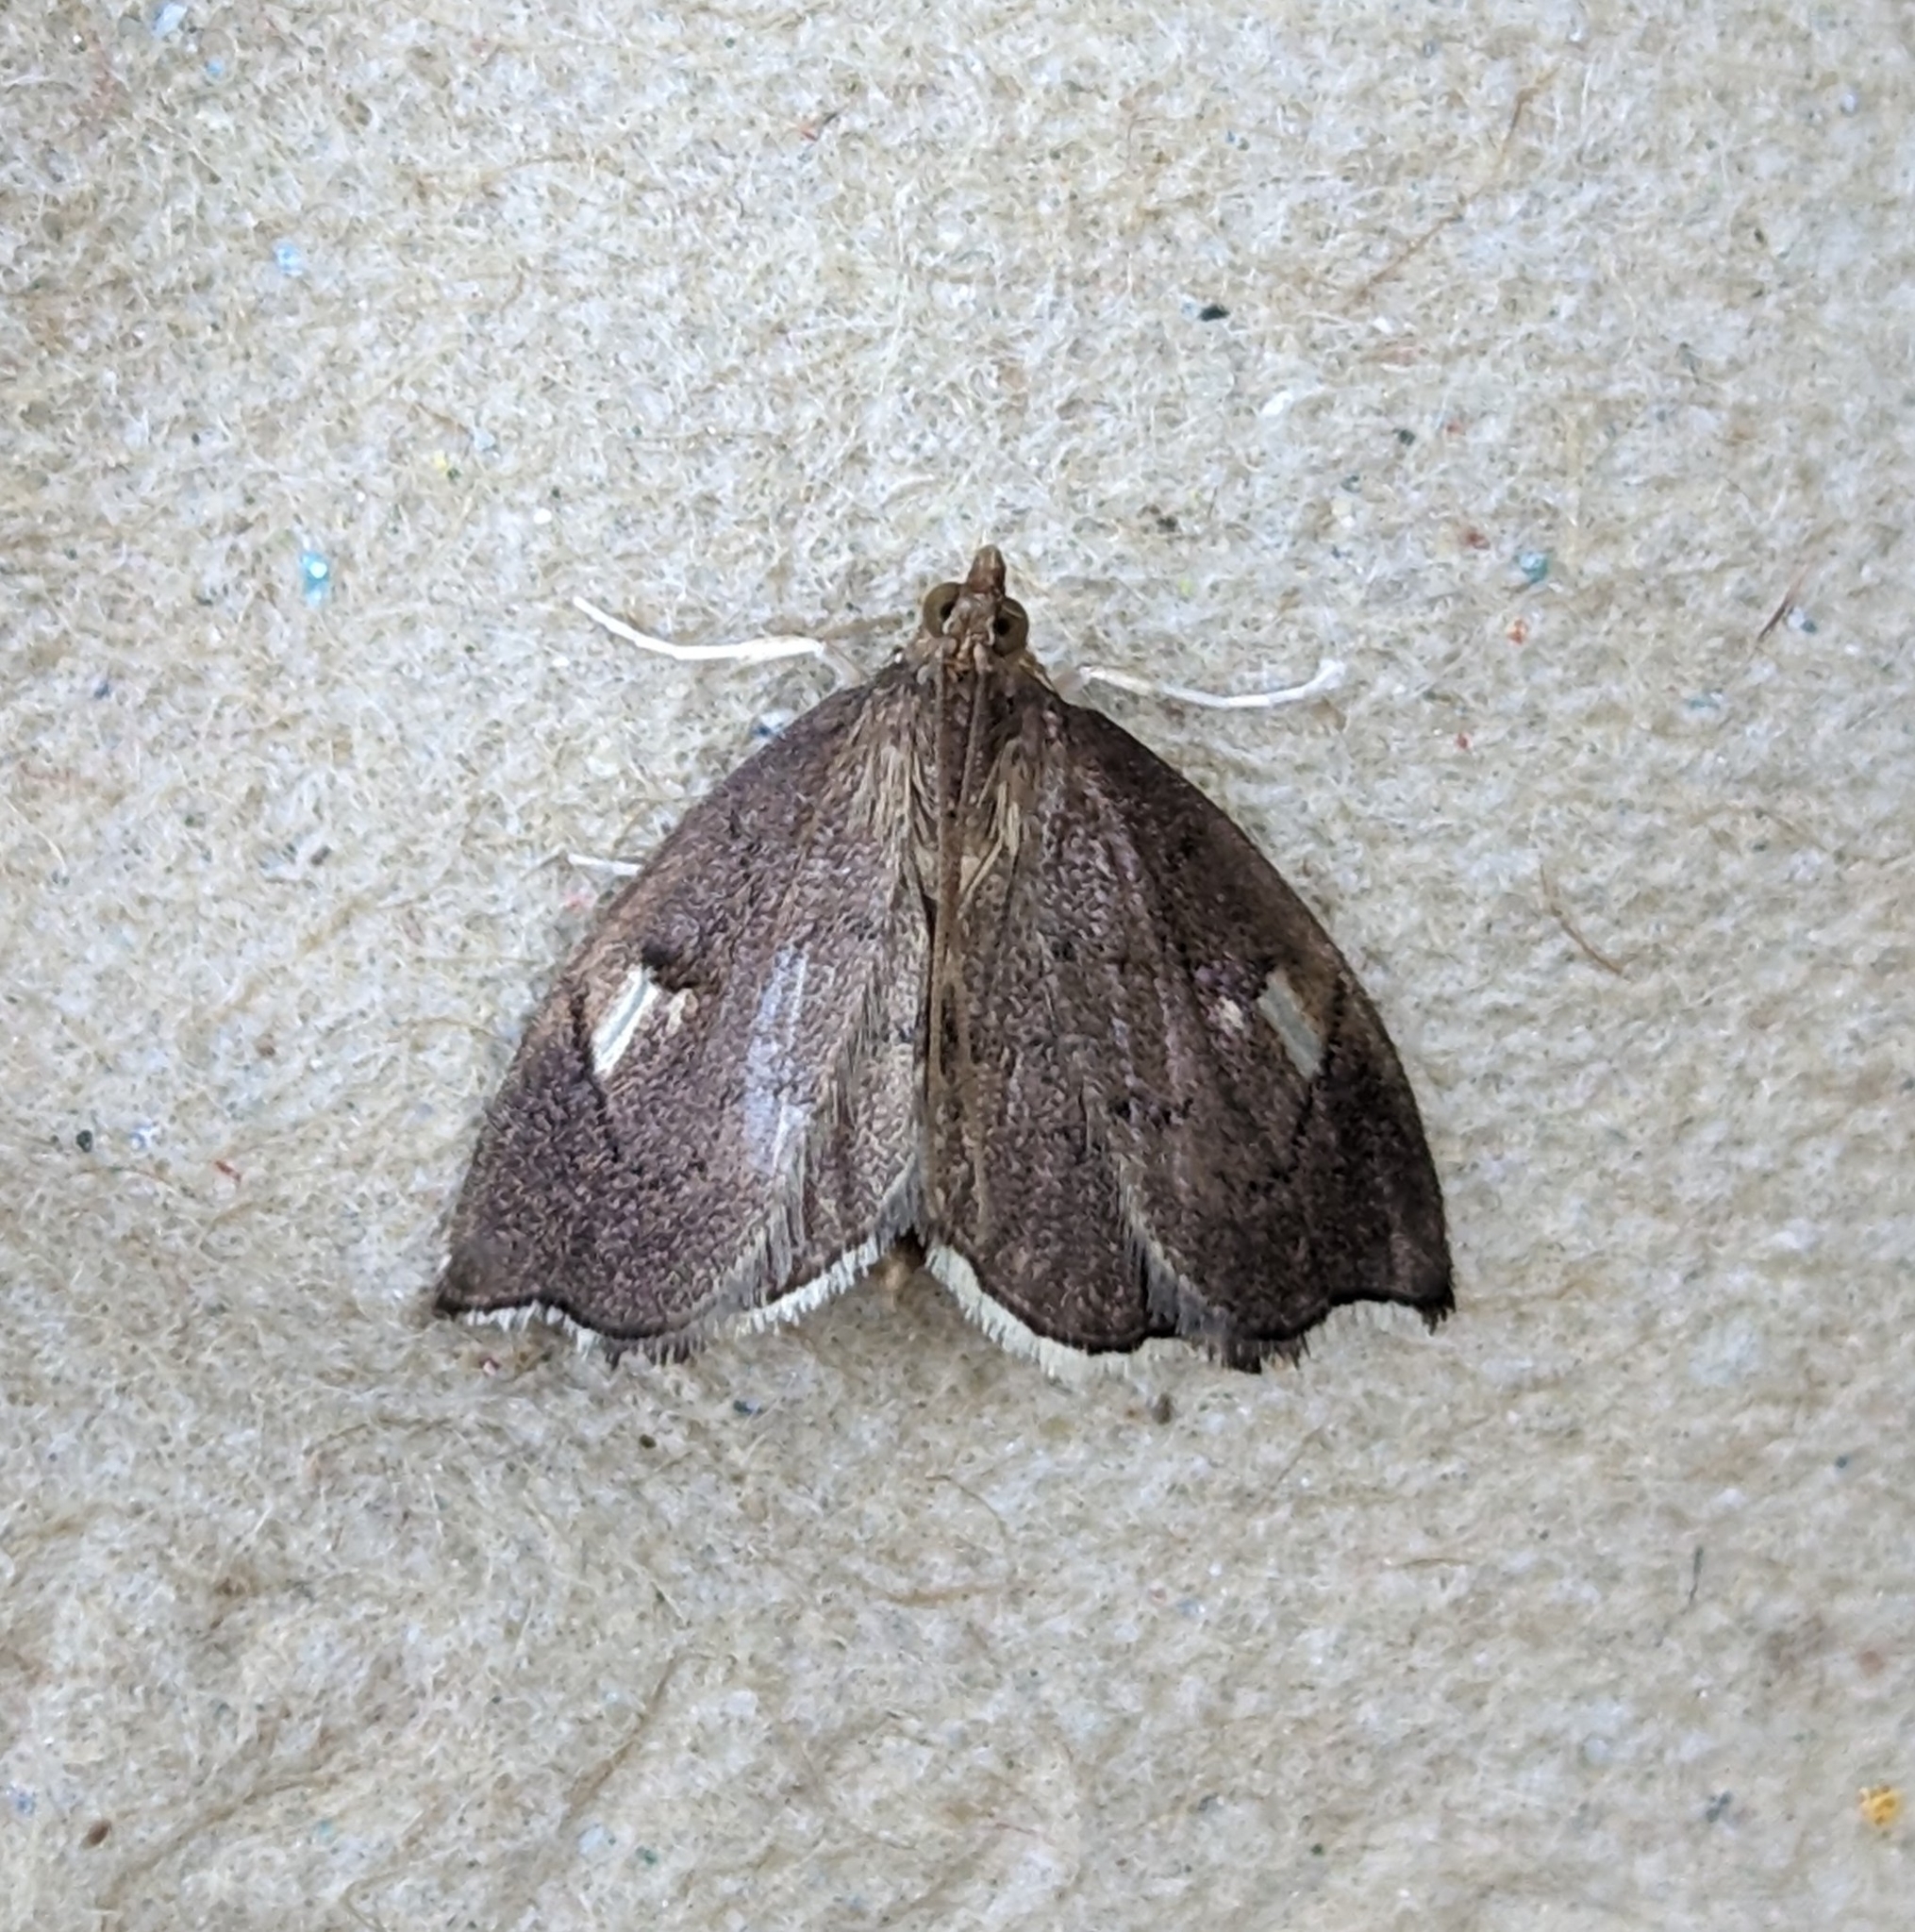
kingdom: Animalia
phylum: Arthropoda
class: Insecta
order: Lepidoptera
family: Crambidae
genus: Perispasta
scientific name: Perispasta caeculalis
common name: Titian peale's moth
